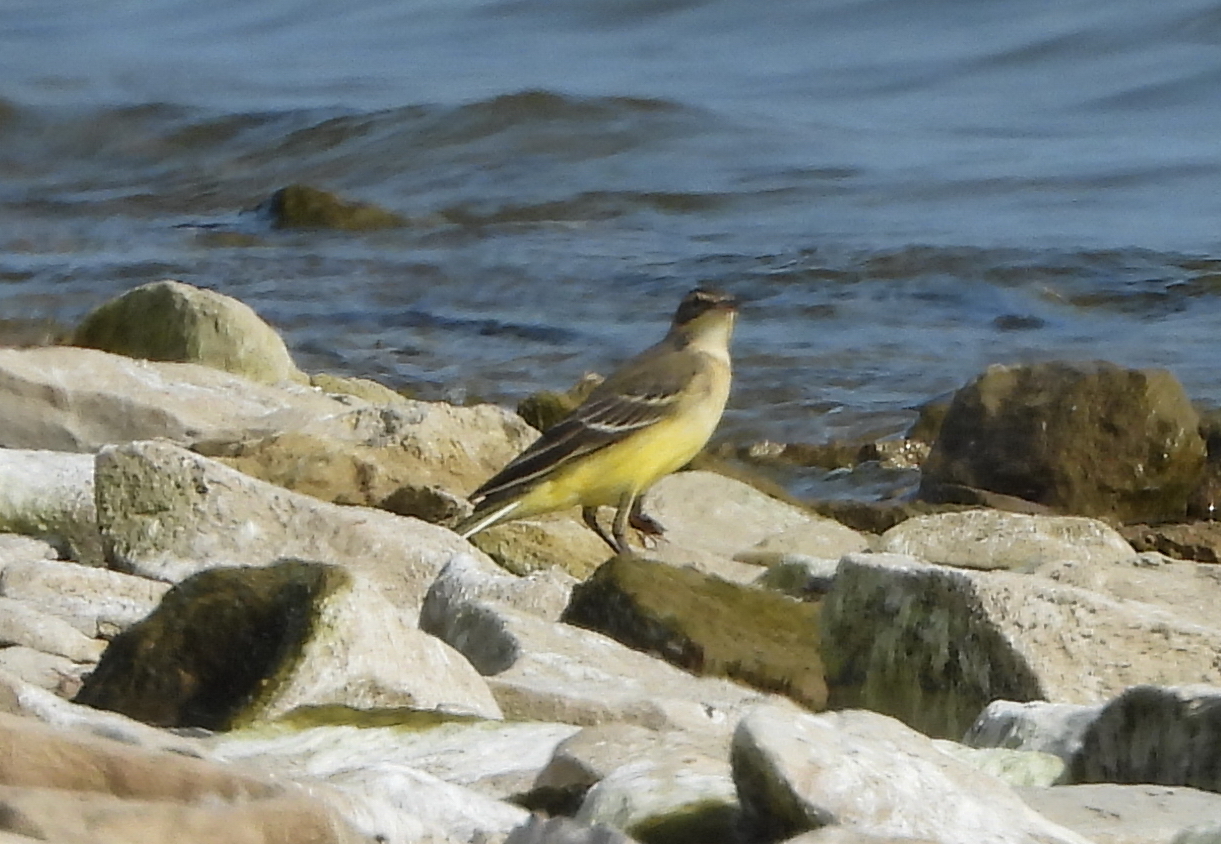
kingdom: Animalia
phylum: Chordata
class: Aves
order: Passeriformes
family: Motacillidae
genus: Motacilla
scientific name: Motacilla flava
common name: Western yellow wagtail
